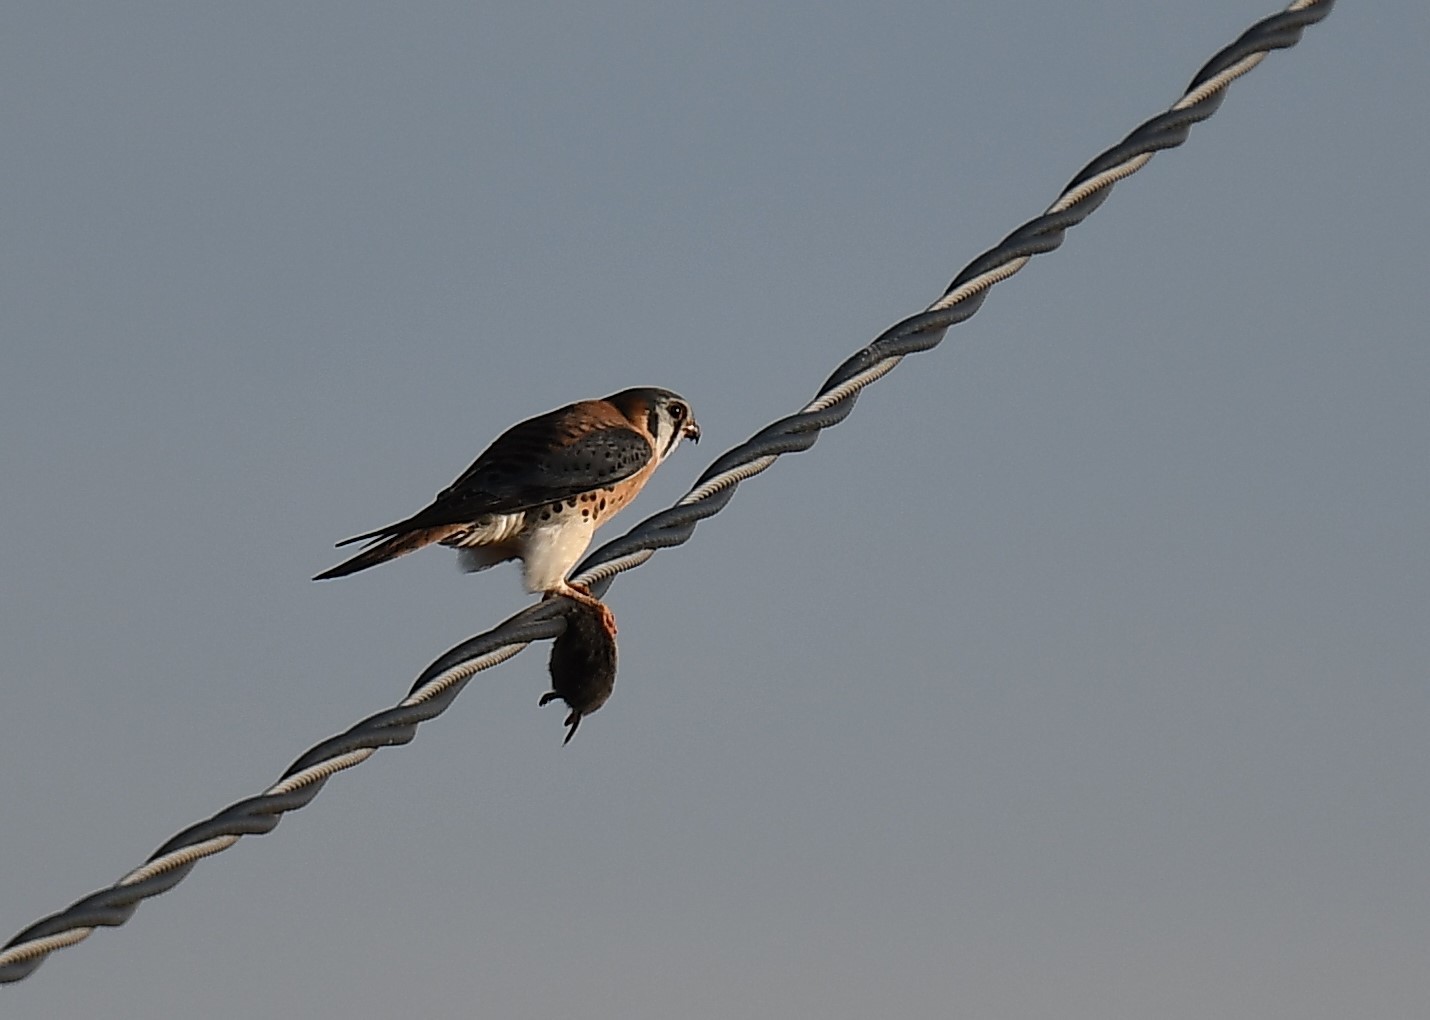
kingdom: Animalia
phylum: Chordata
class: Aves
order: Falconiformes
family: Falconidae
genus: Falco
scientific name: Falco sparverius
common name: American kestrel
